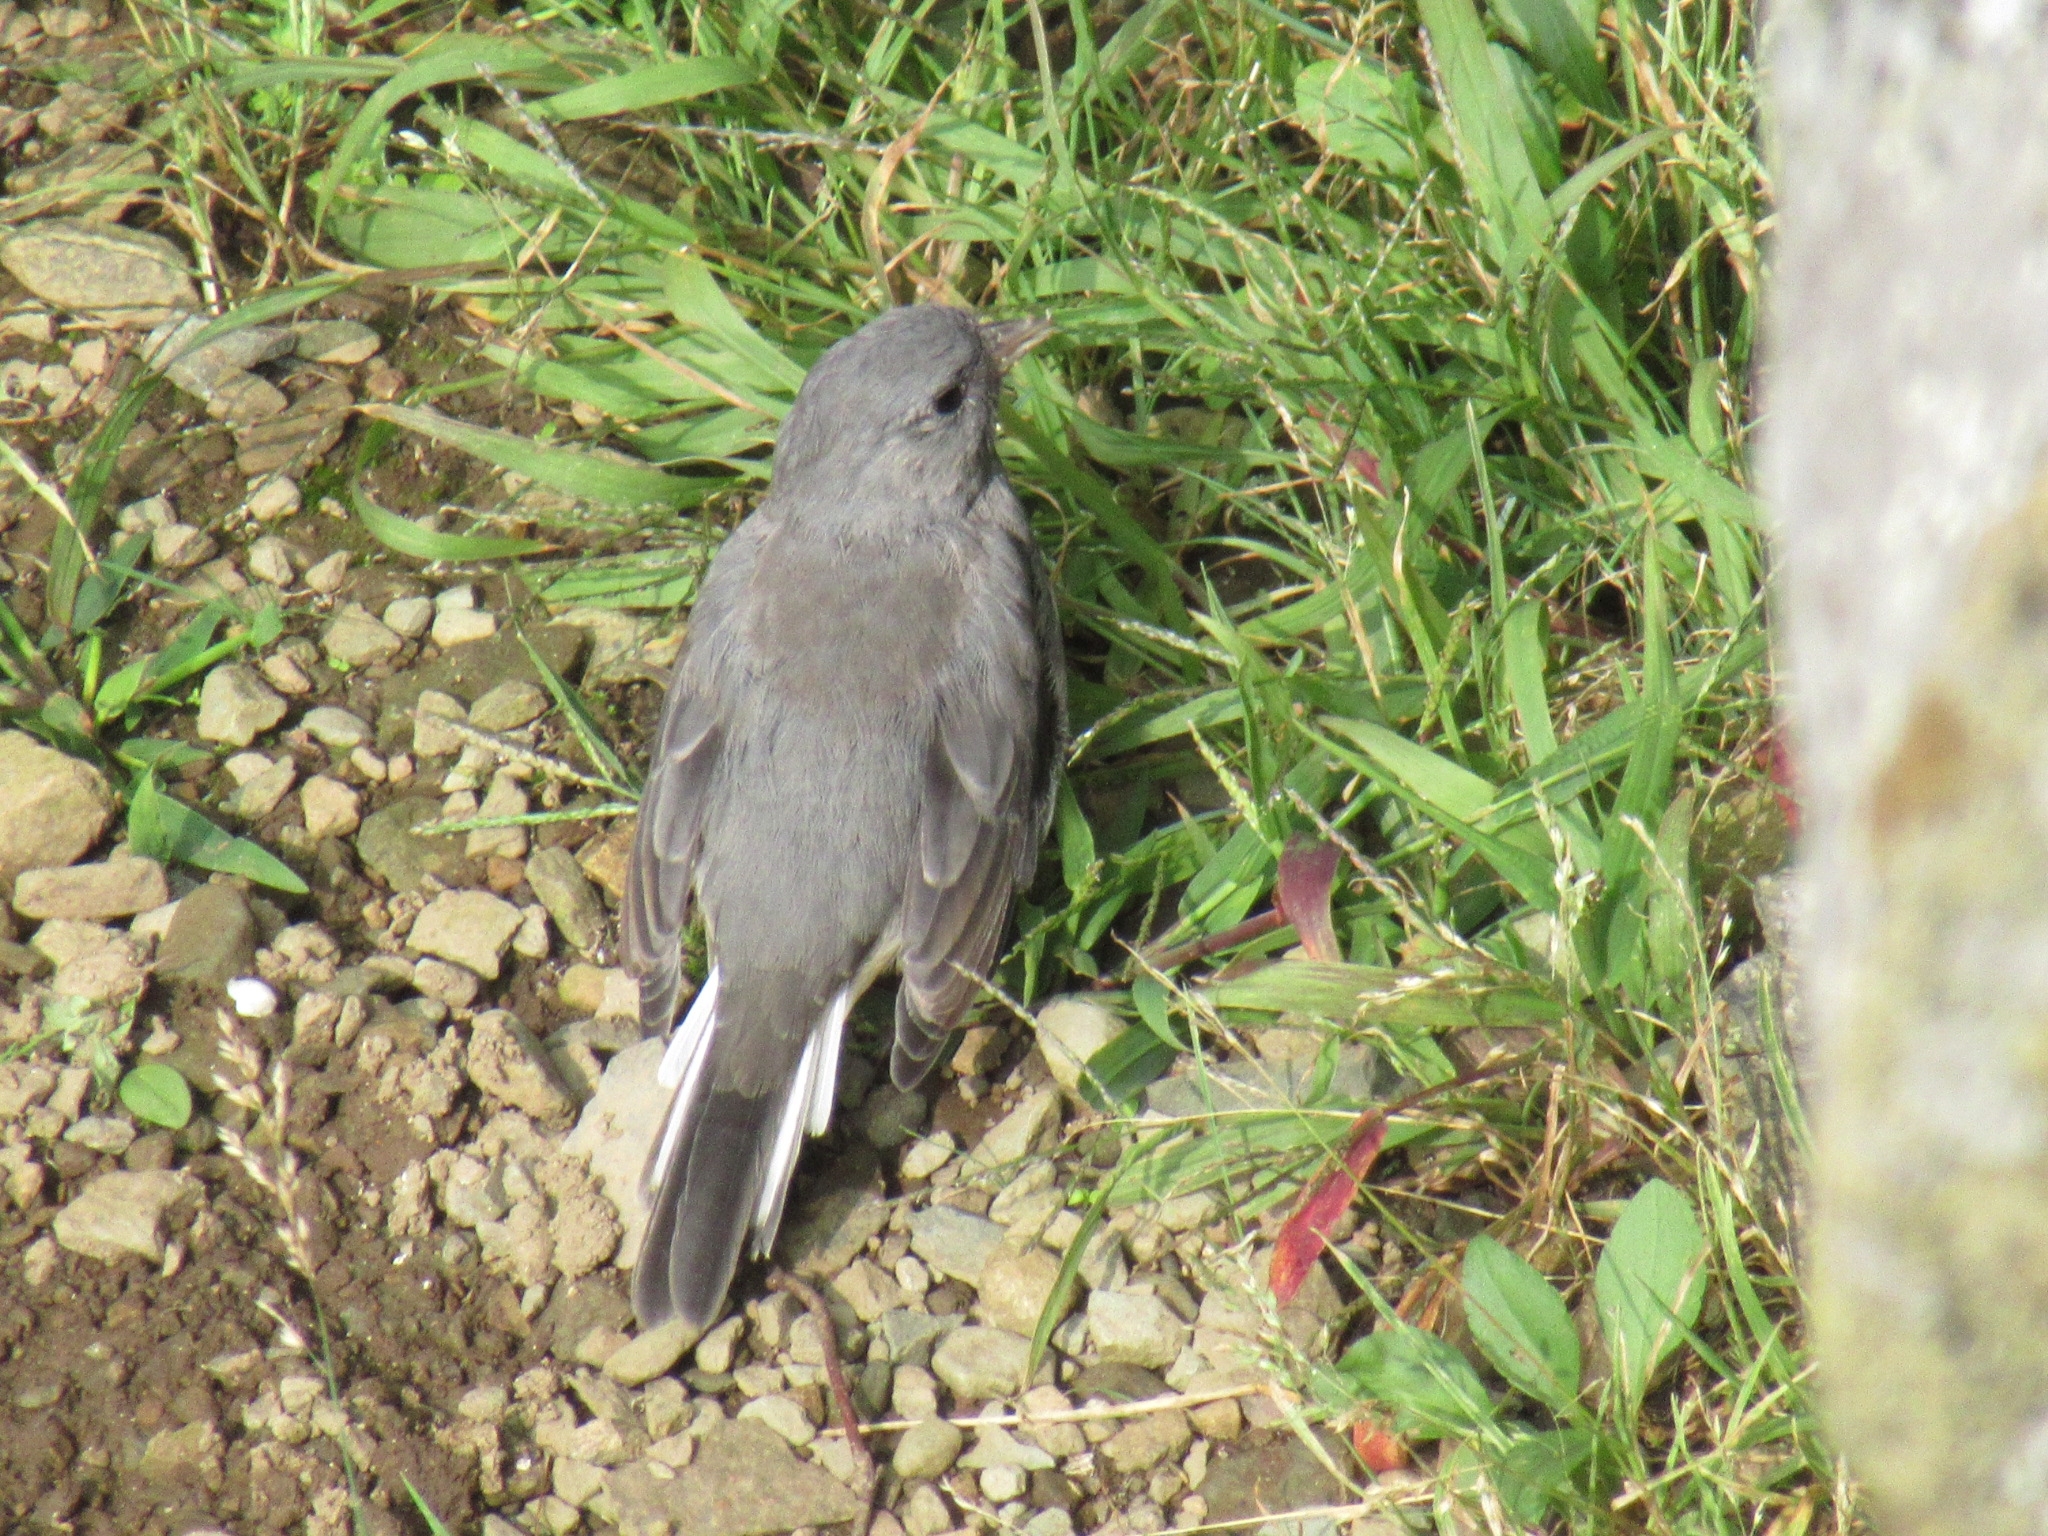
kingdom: Animalia
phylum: Chordata
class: Aves
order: Passeriformes
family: Passerellidae
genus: Junco
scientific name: Junco hyemalis
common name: Dark-eyed junco
